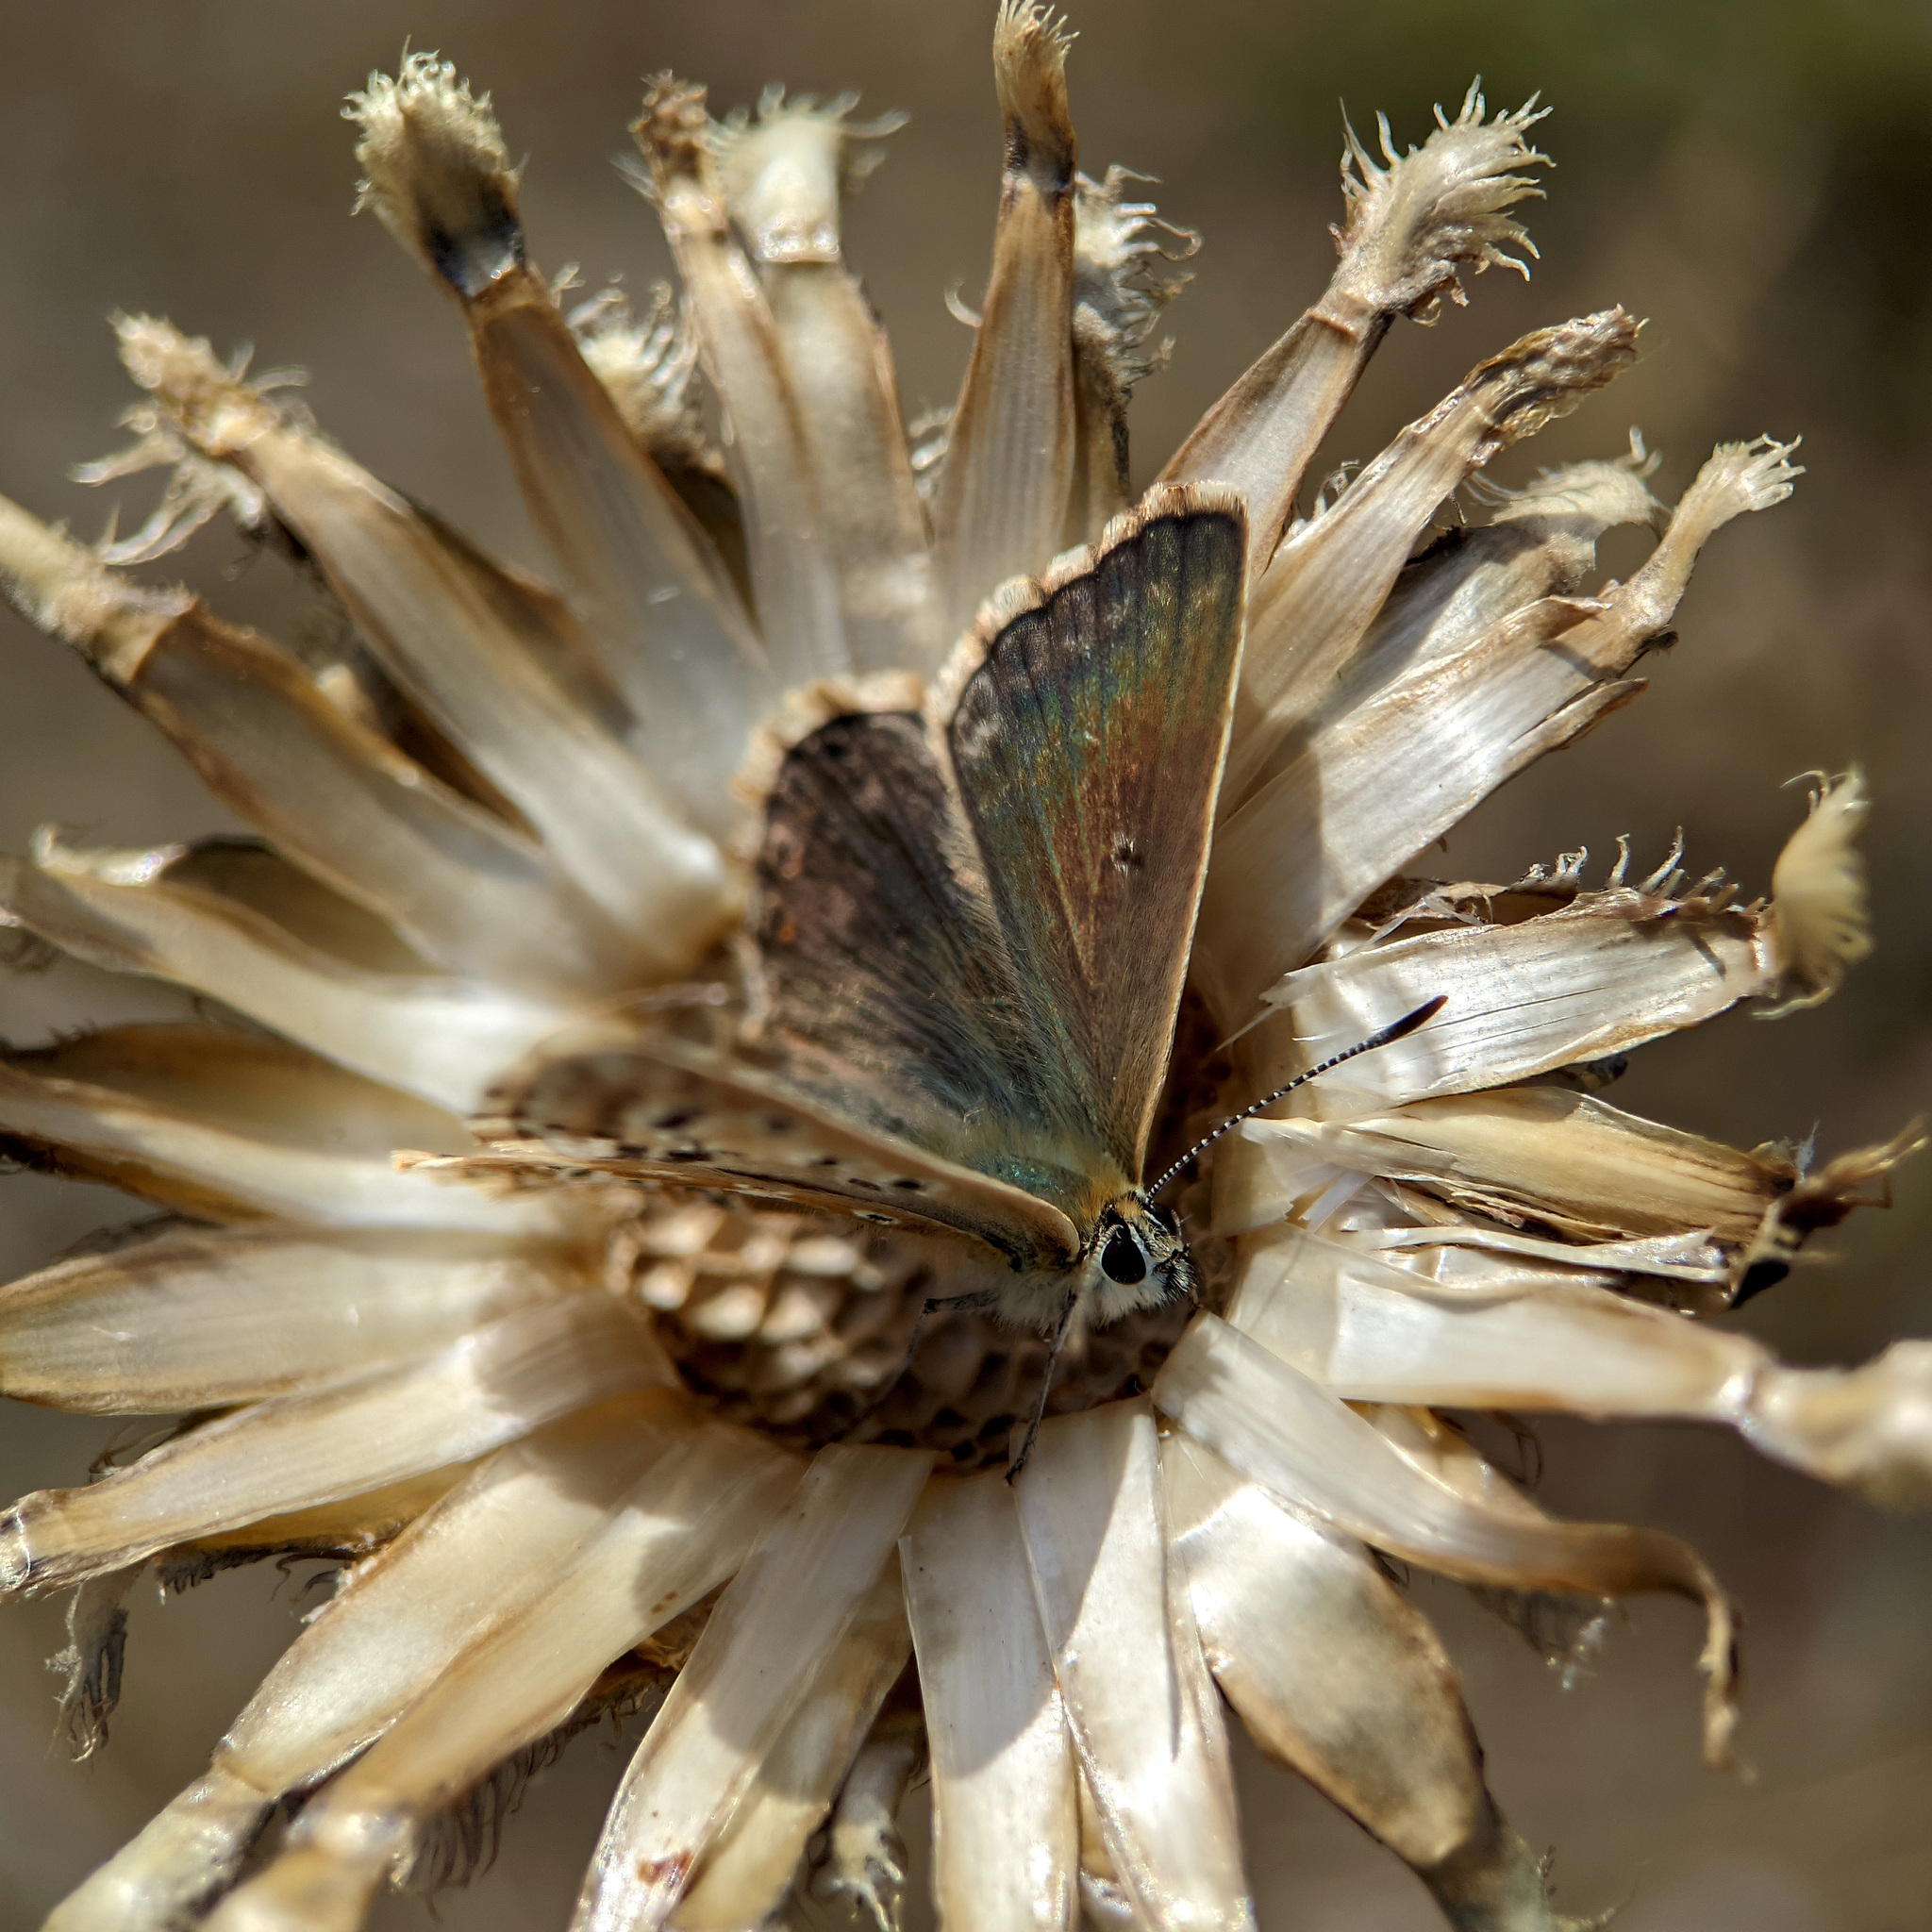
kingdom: Animalia
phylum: Arthropoda
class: Insecta
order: Lepidoptera
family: Lycaenidae
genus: Lysandra
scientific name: Lysandra coridon
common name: Chalkhill blue
